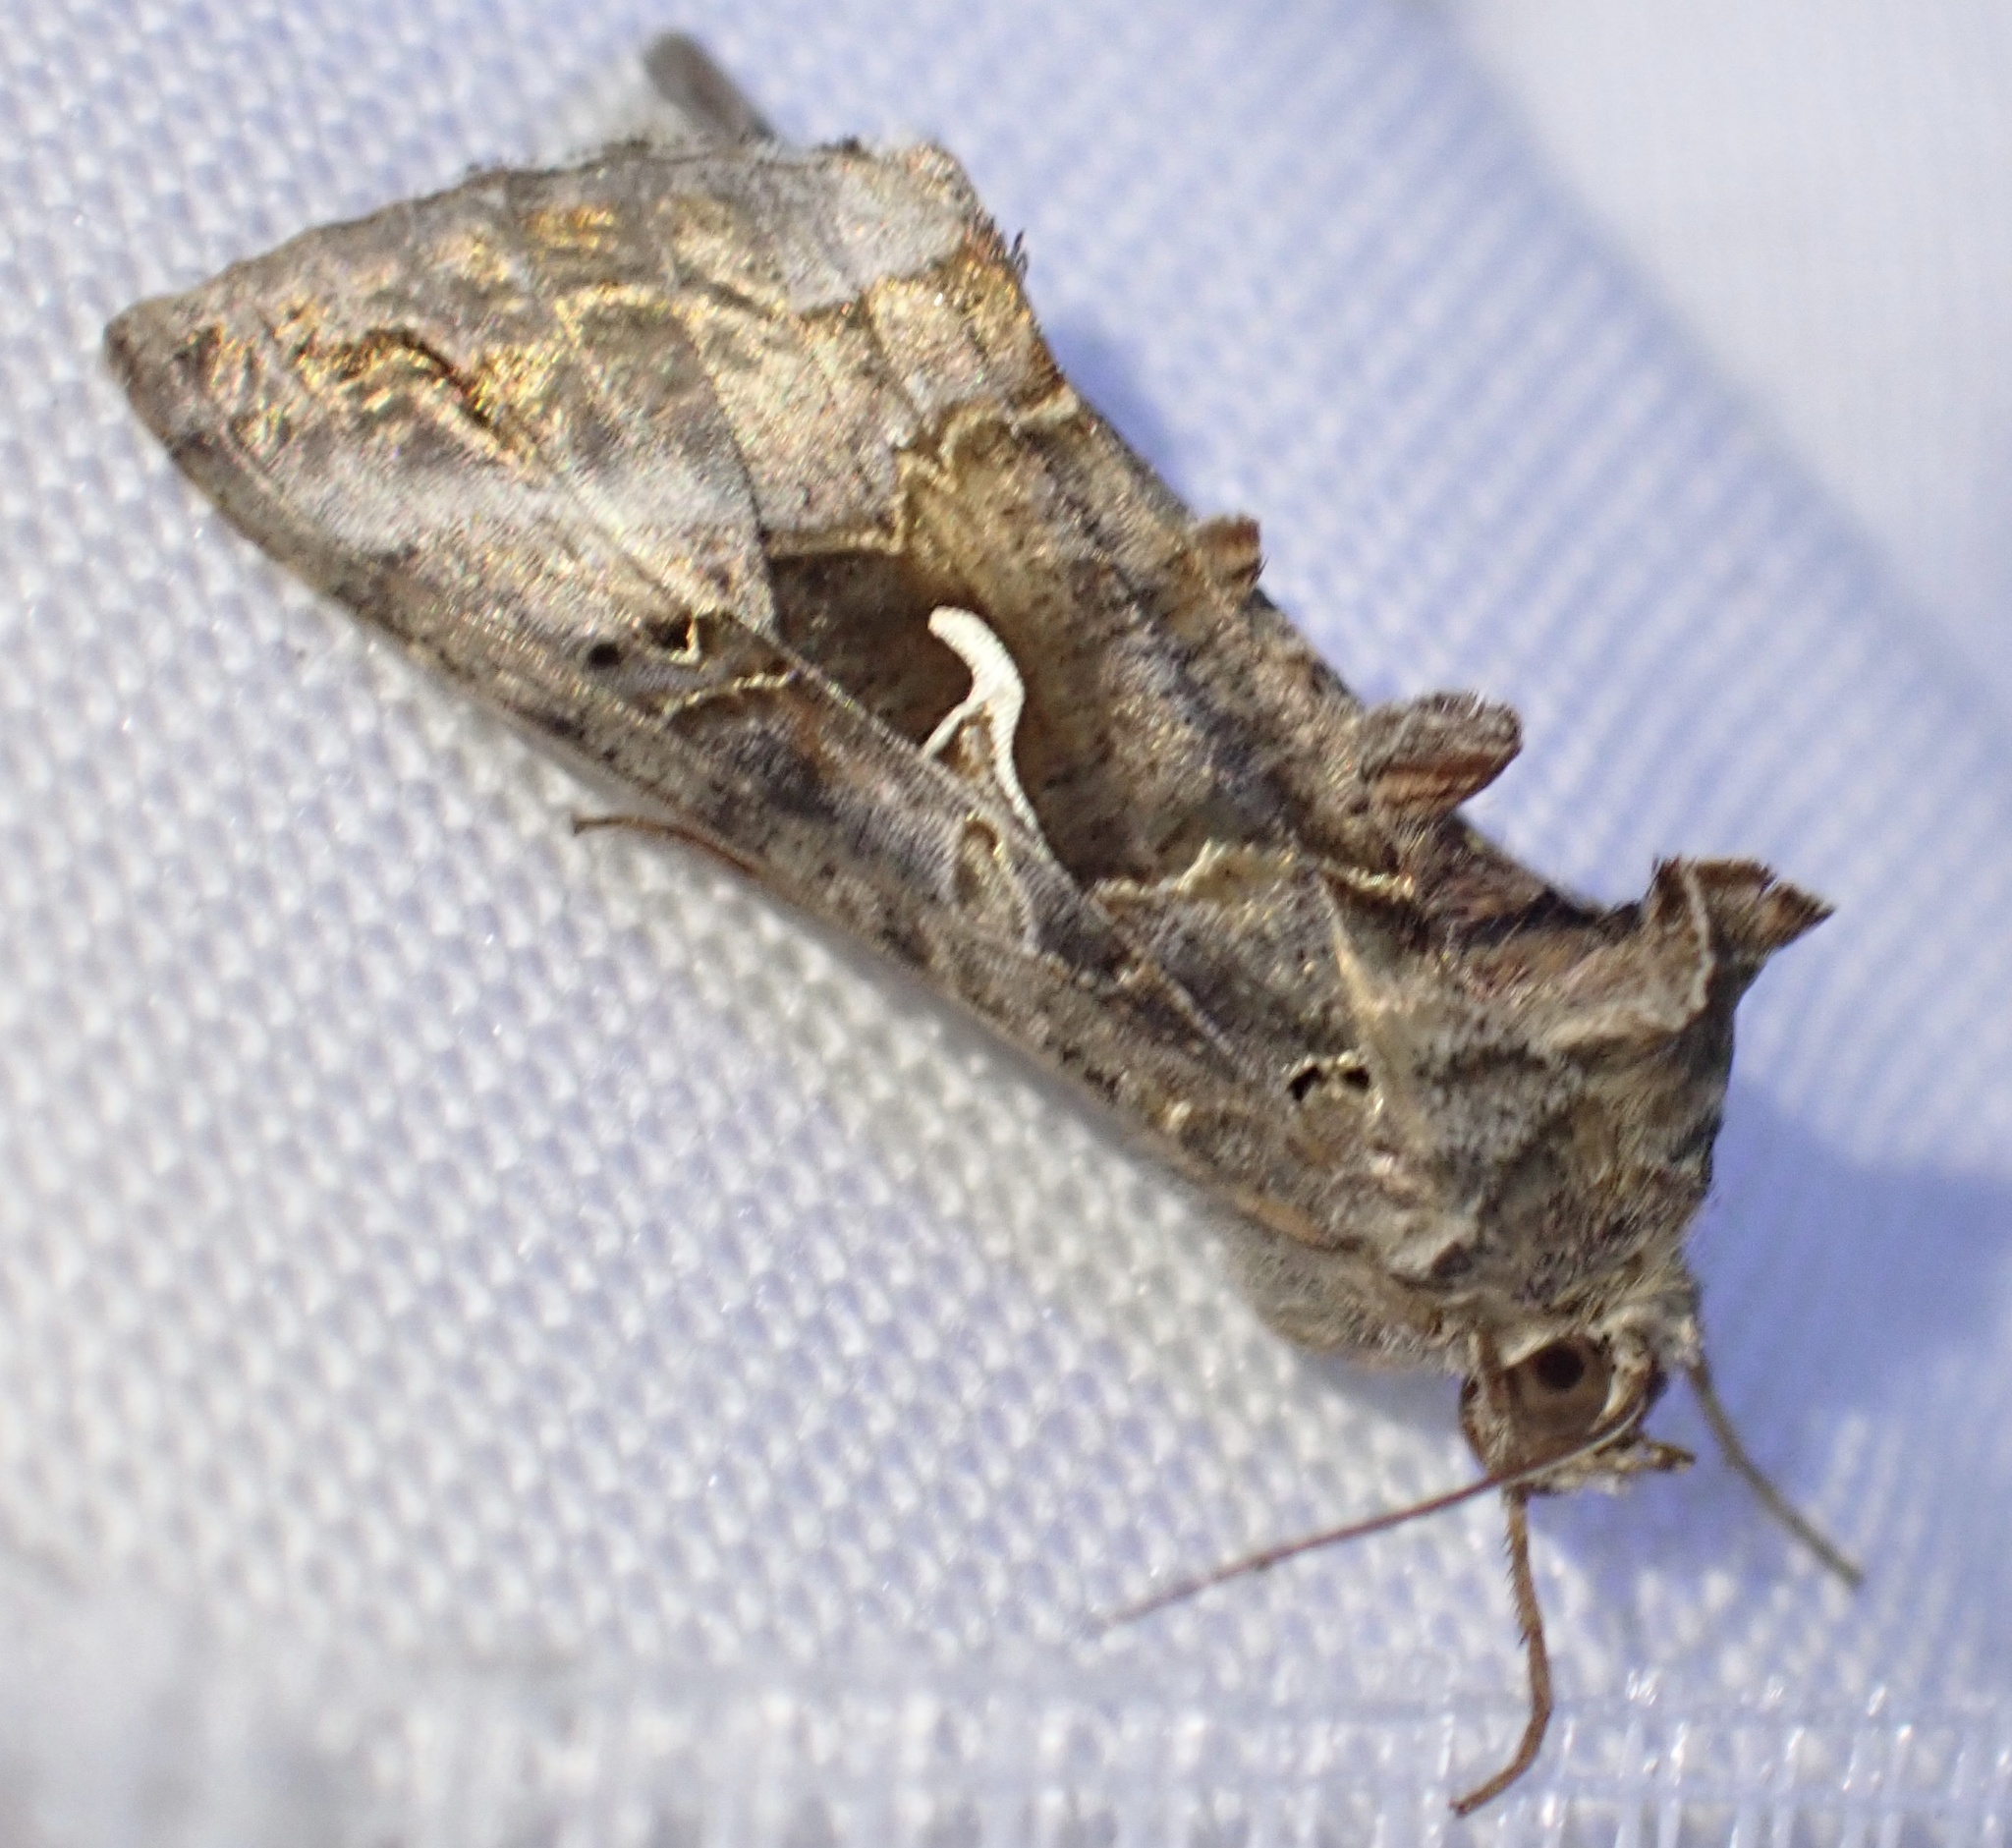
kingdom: Animalia
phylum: Arthropoda
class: Insecta
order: Lepidoptera
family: Noctuidae
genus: Autographa
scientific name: Autographa gamma
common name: Silver y
